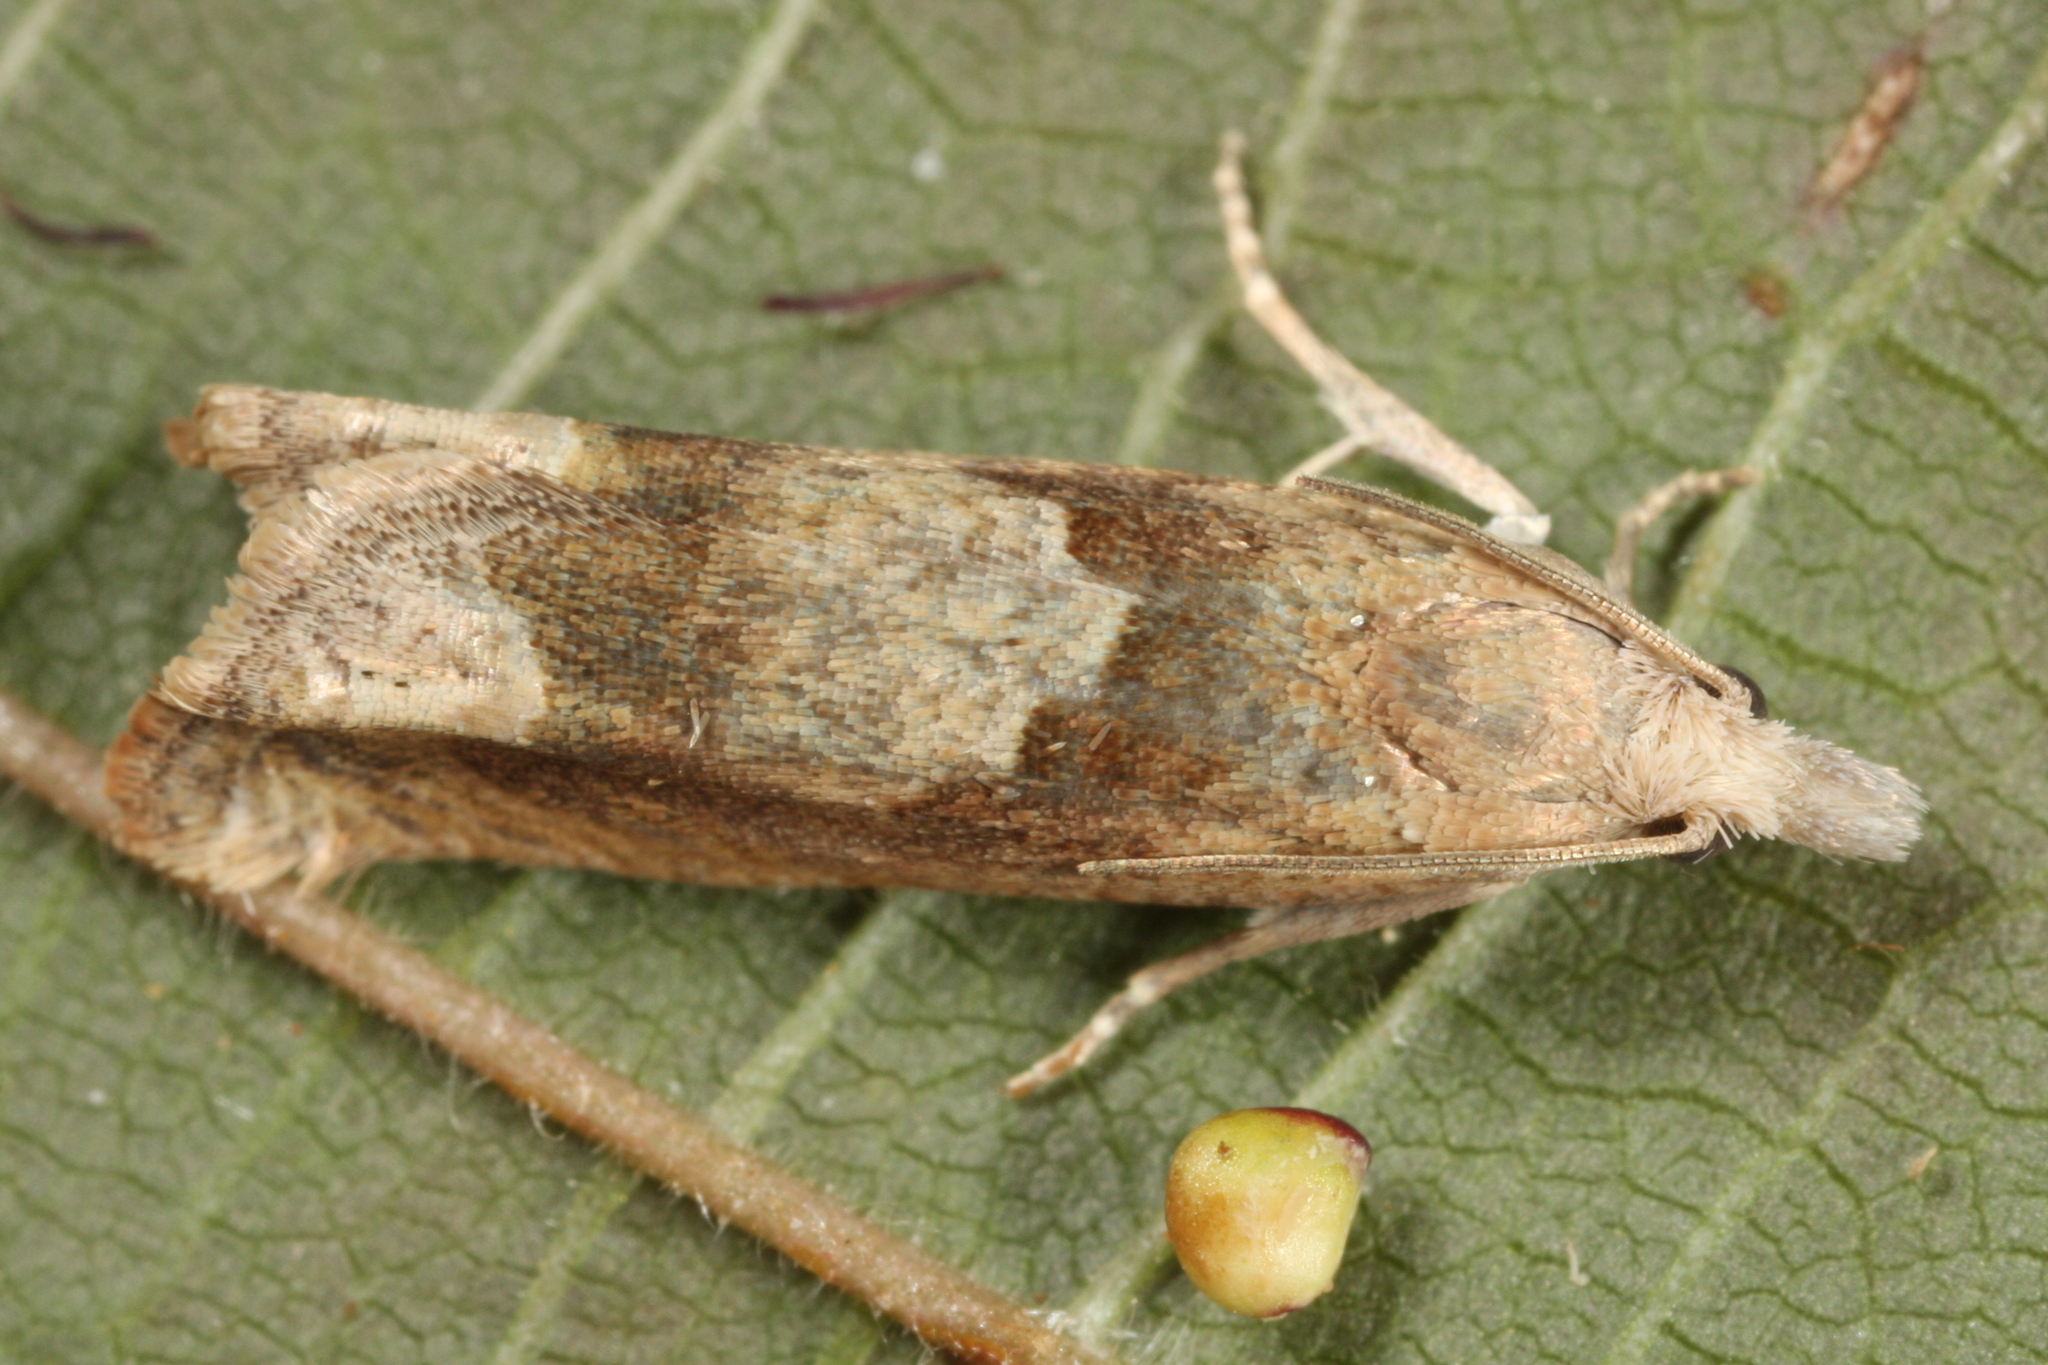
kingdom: Animalia
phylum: Arthropoda
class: Insecta
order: Lepidoptera
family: Tortricidae
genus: Eucosma
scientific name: Eucosma conterminana
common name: Pale lettuce bell
